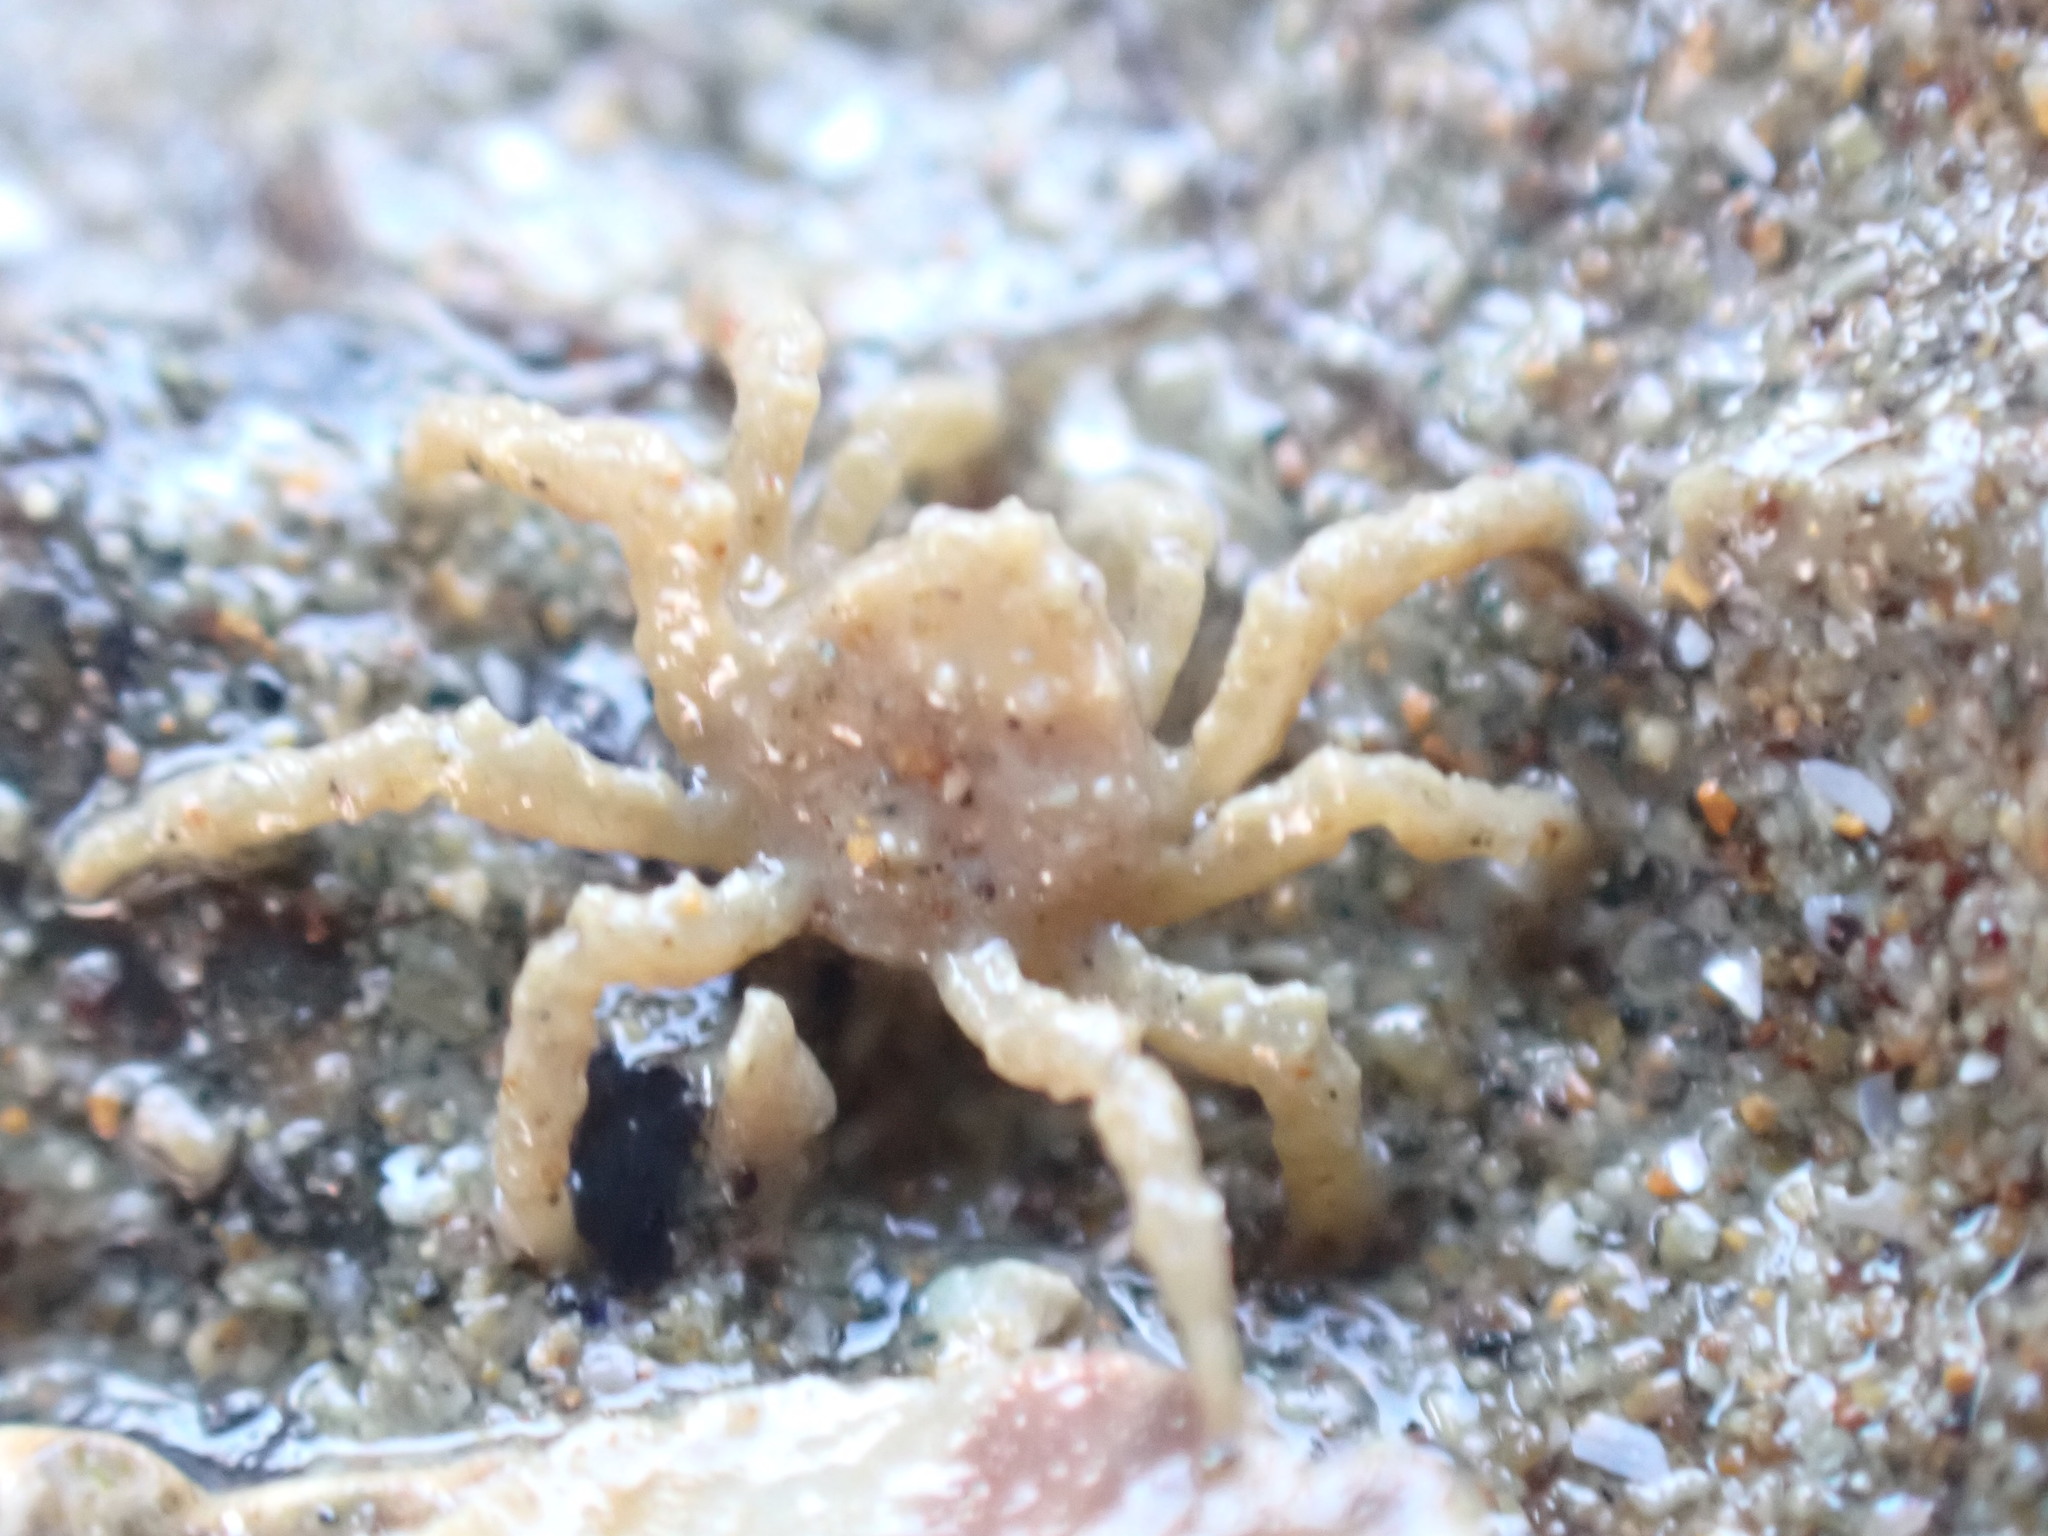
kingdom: Animalia
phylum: Arthropoda
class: Malacostraca
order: Decapoda
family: Hymenosomatidae
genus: Neohymenicus
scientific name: Neohymenicus pubescens
